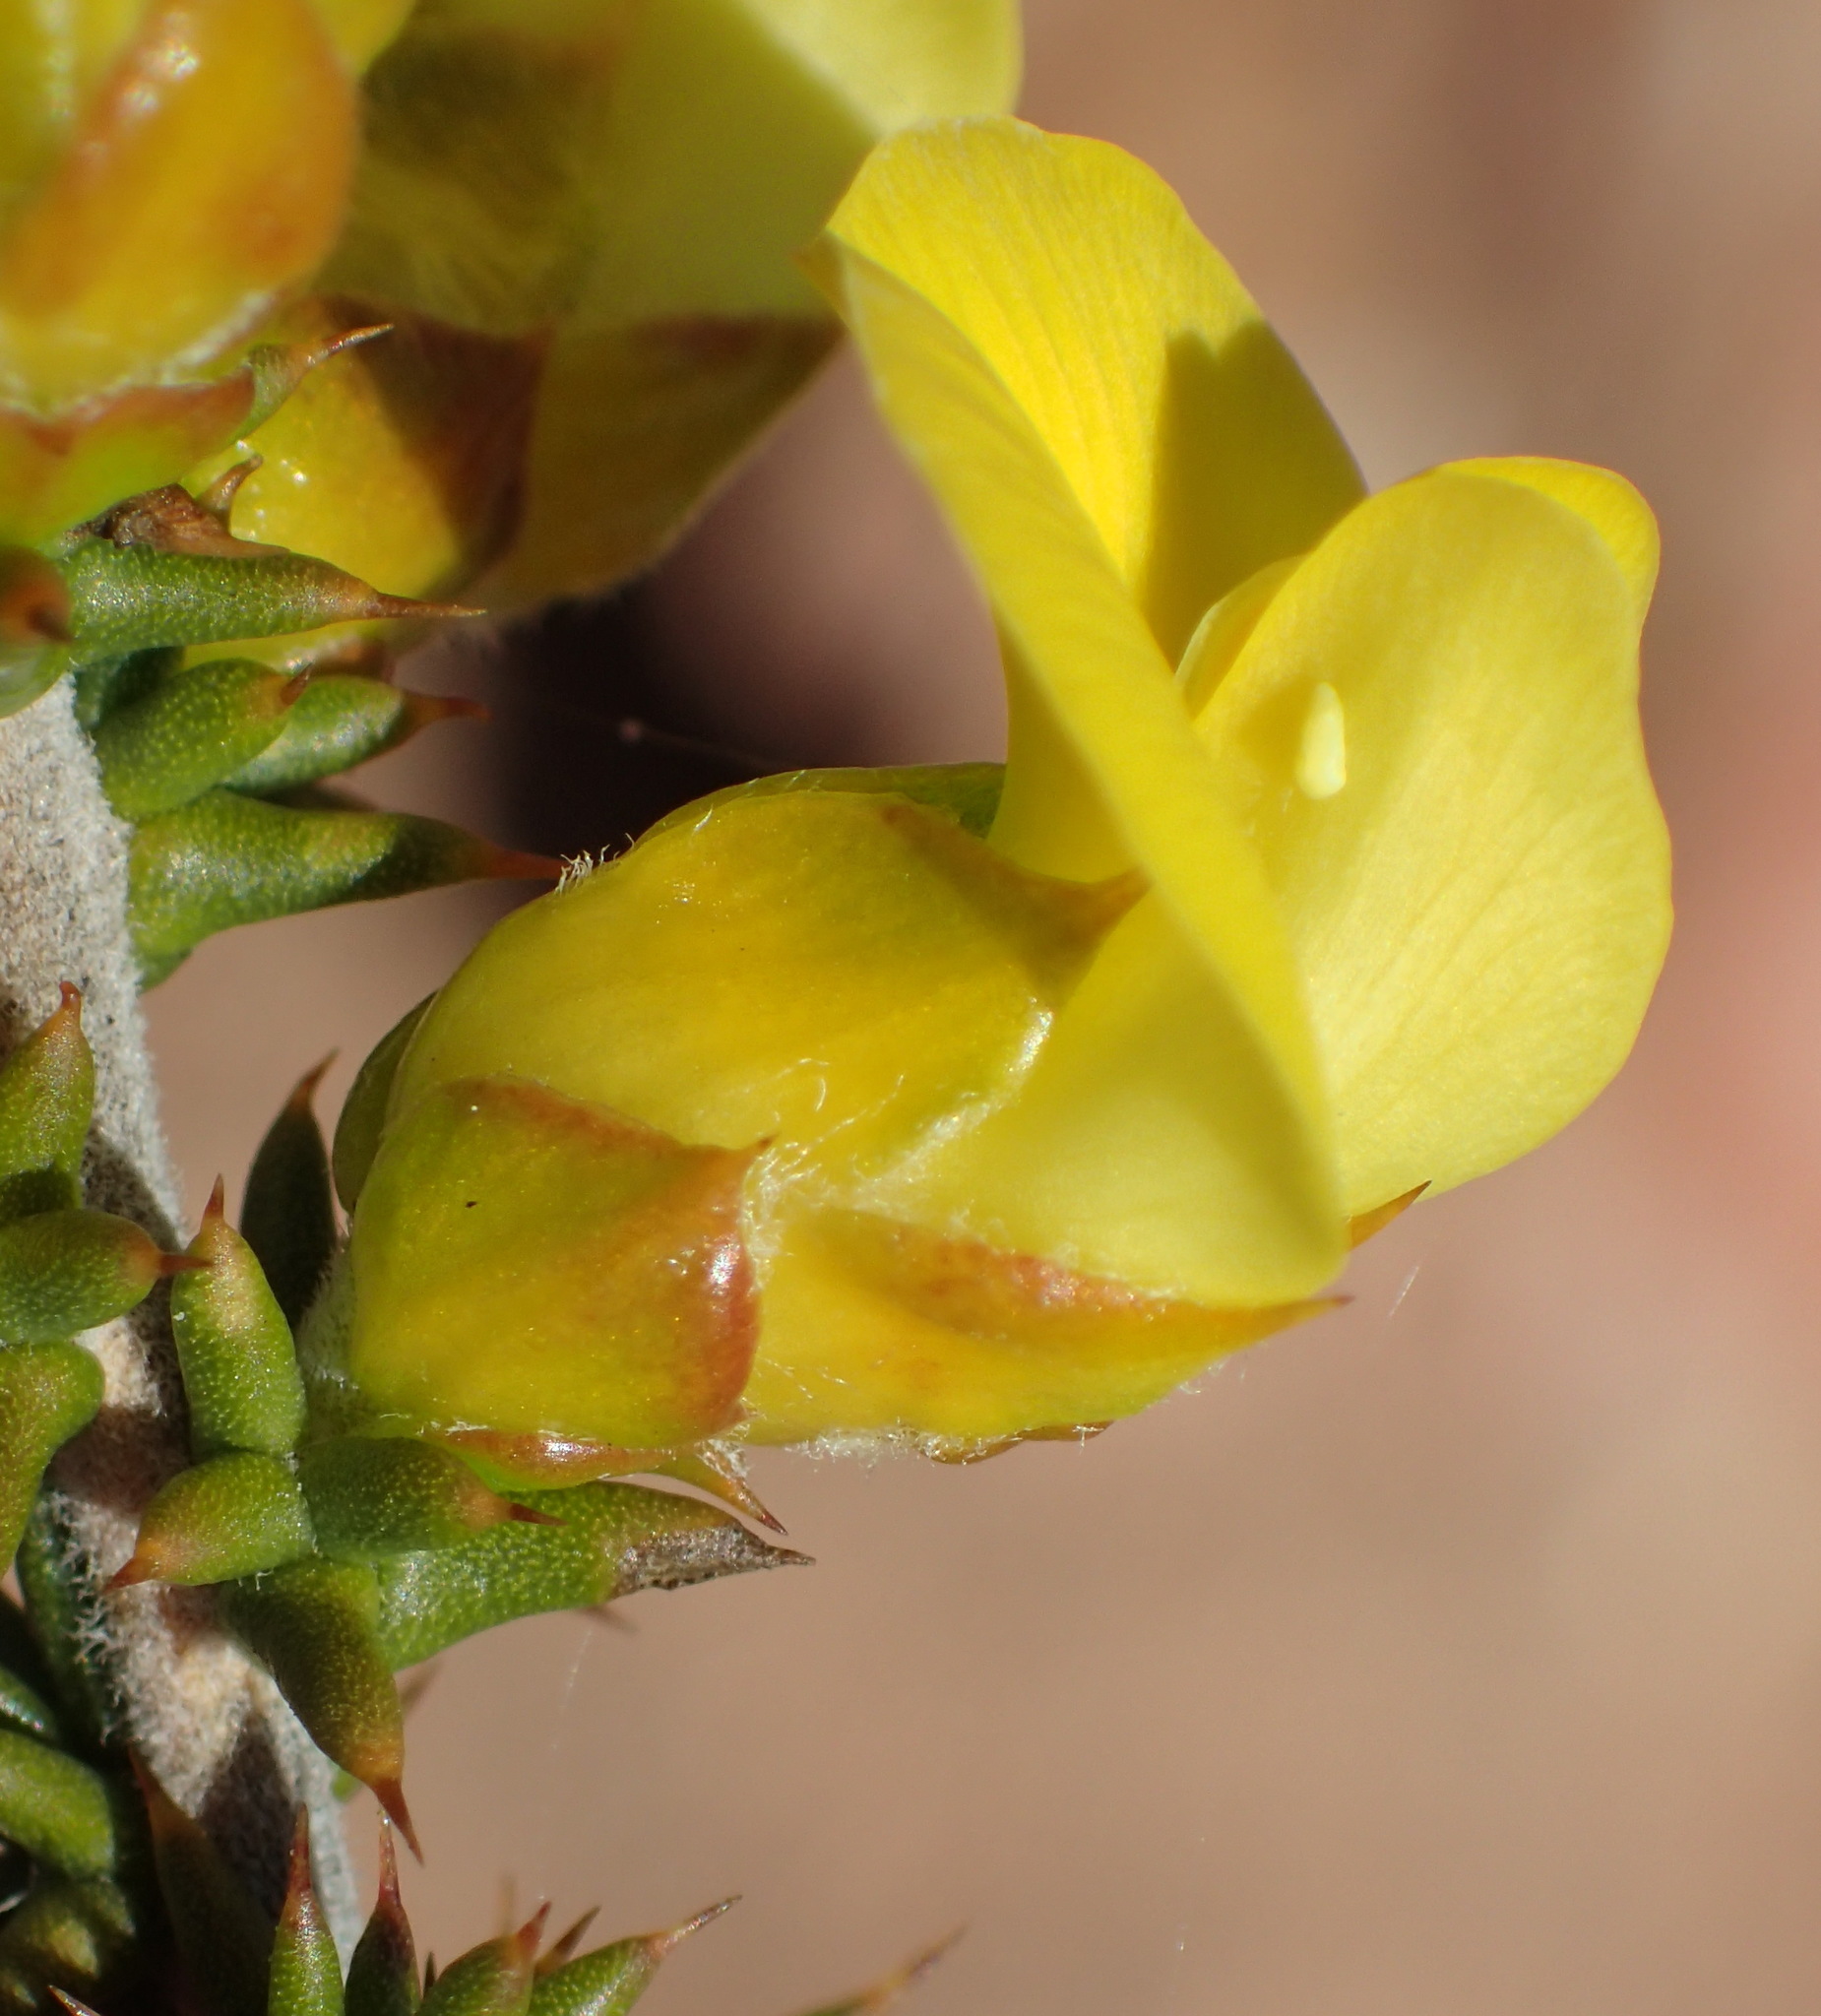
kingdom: Plantae
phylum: Tracheophyta
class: Magnoliopsida
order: Fabales
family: Fabaceae
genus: Aspalathus
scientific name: Aspalathus aciphylla
